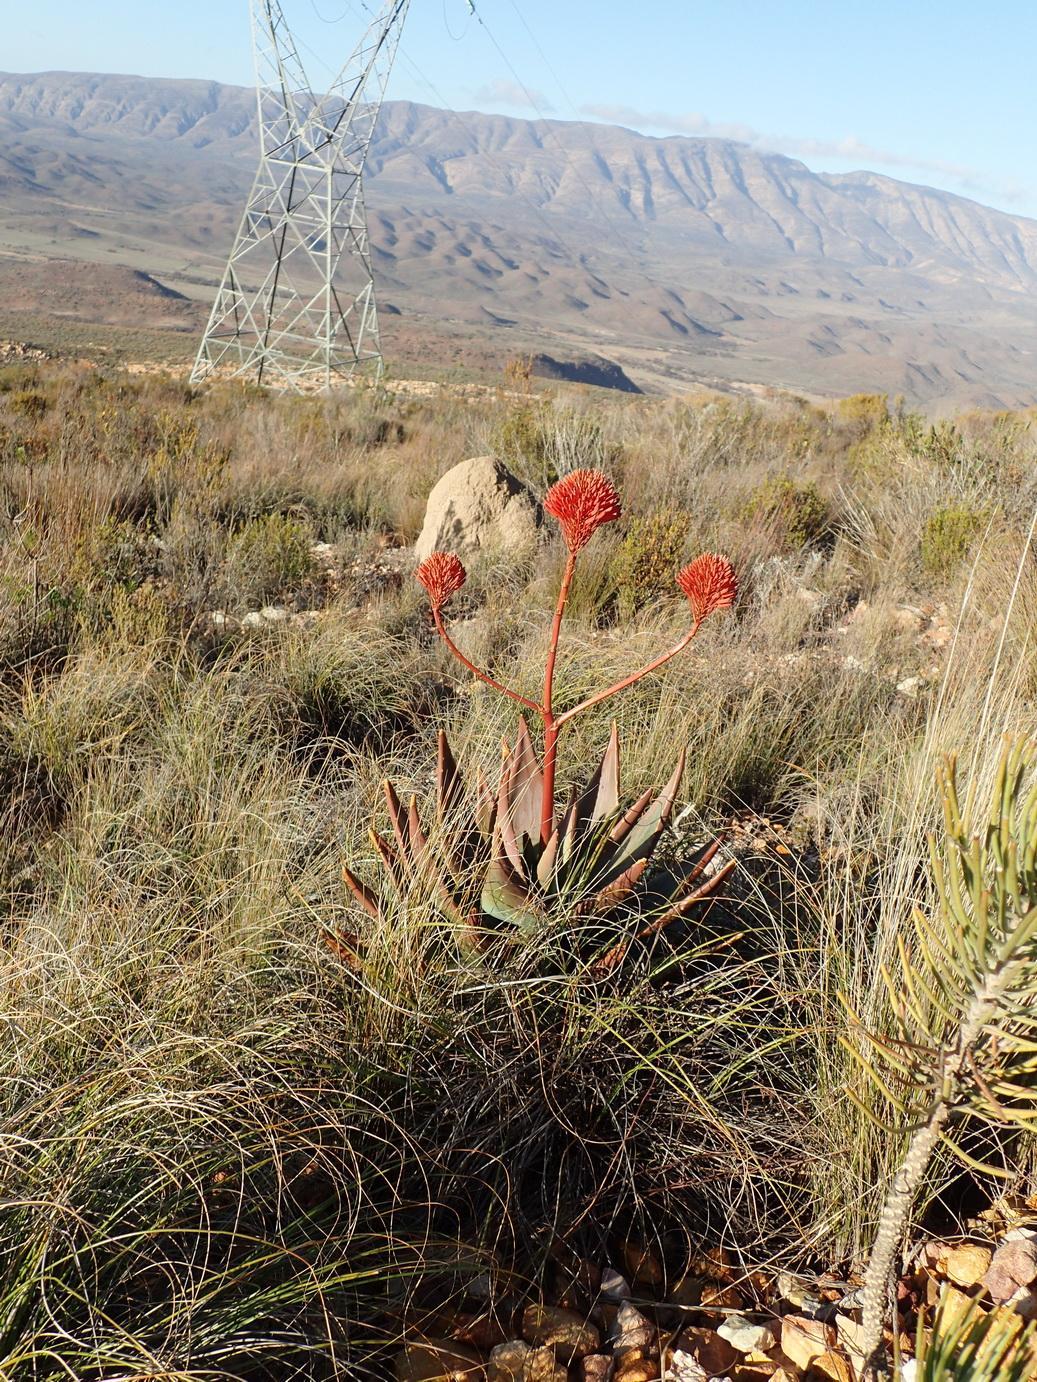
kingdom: Plantae
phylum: Tracheophyta
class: Liliopsida
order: Asparagales
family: Asphodelaceae
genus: Aloe
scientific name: Aloe perfoliata
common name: Mitra aloe
